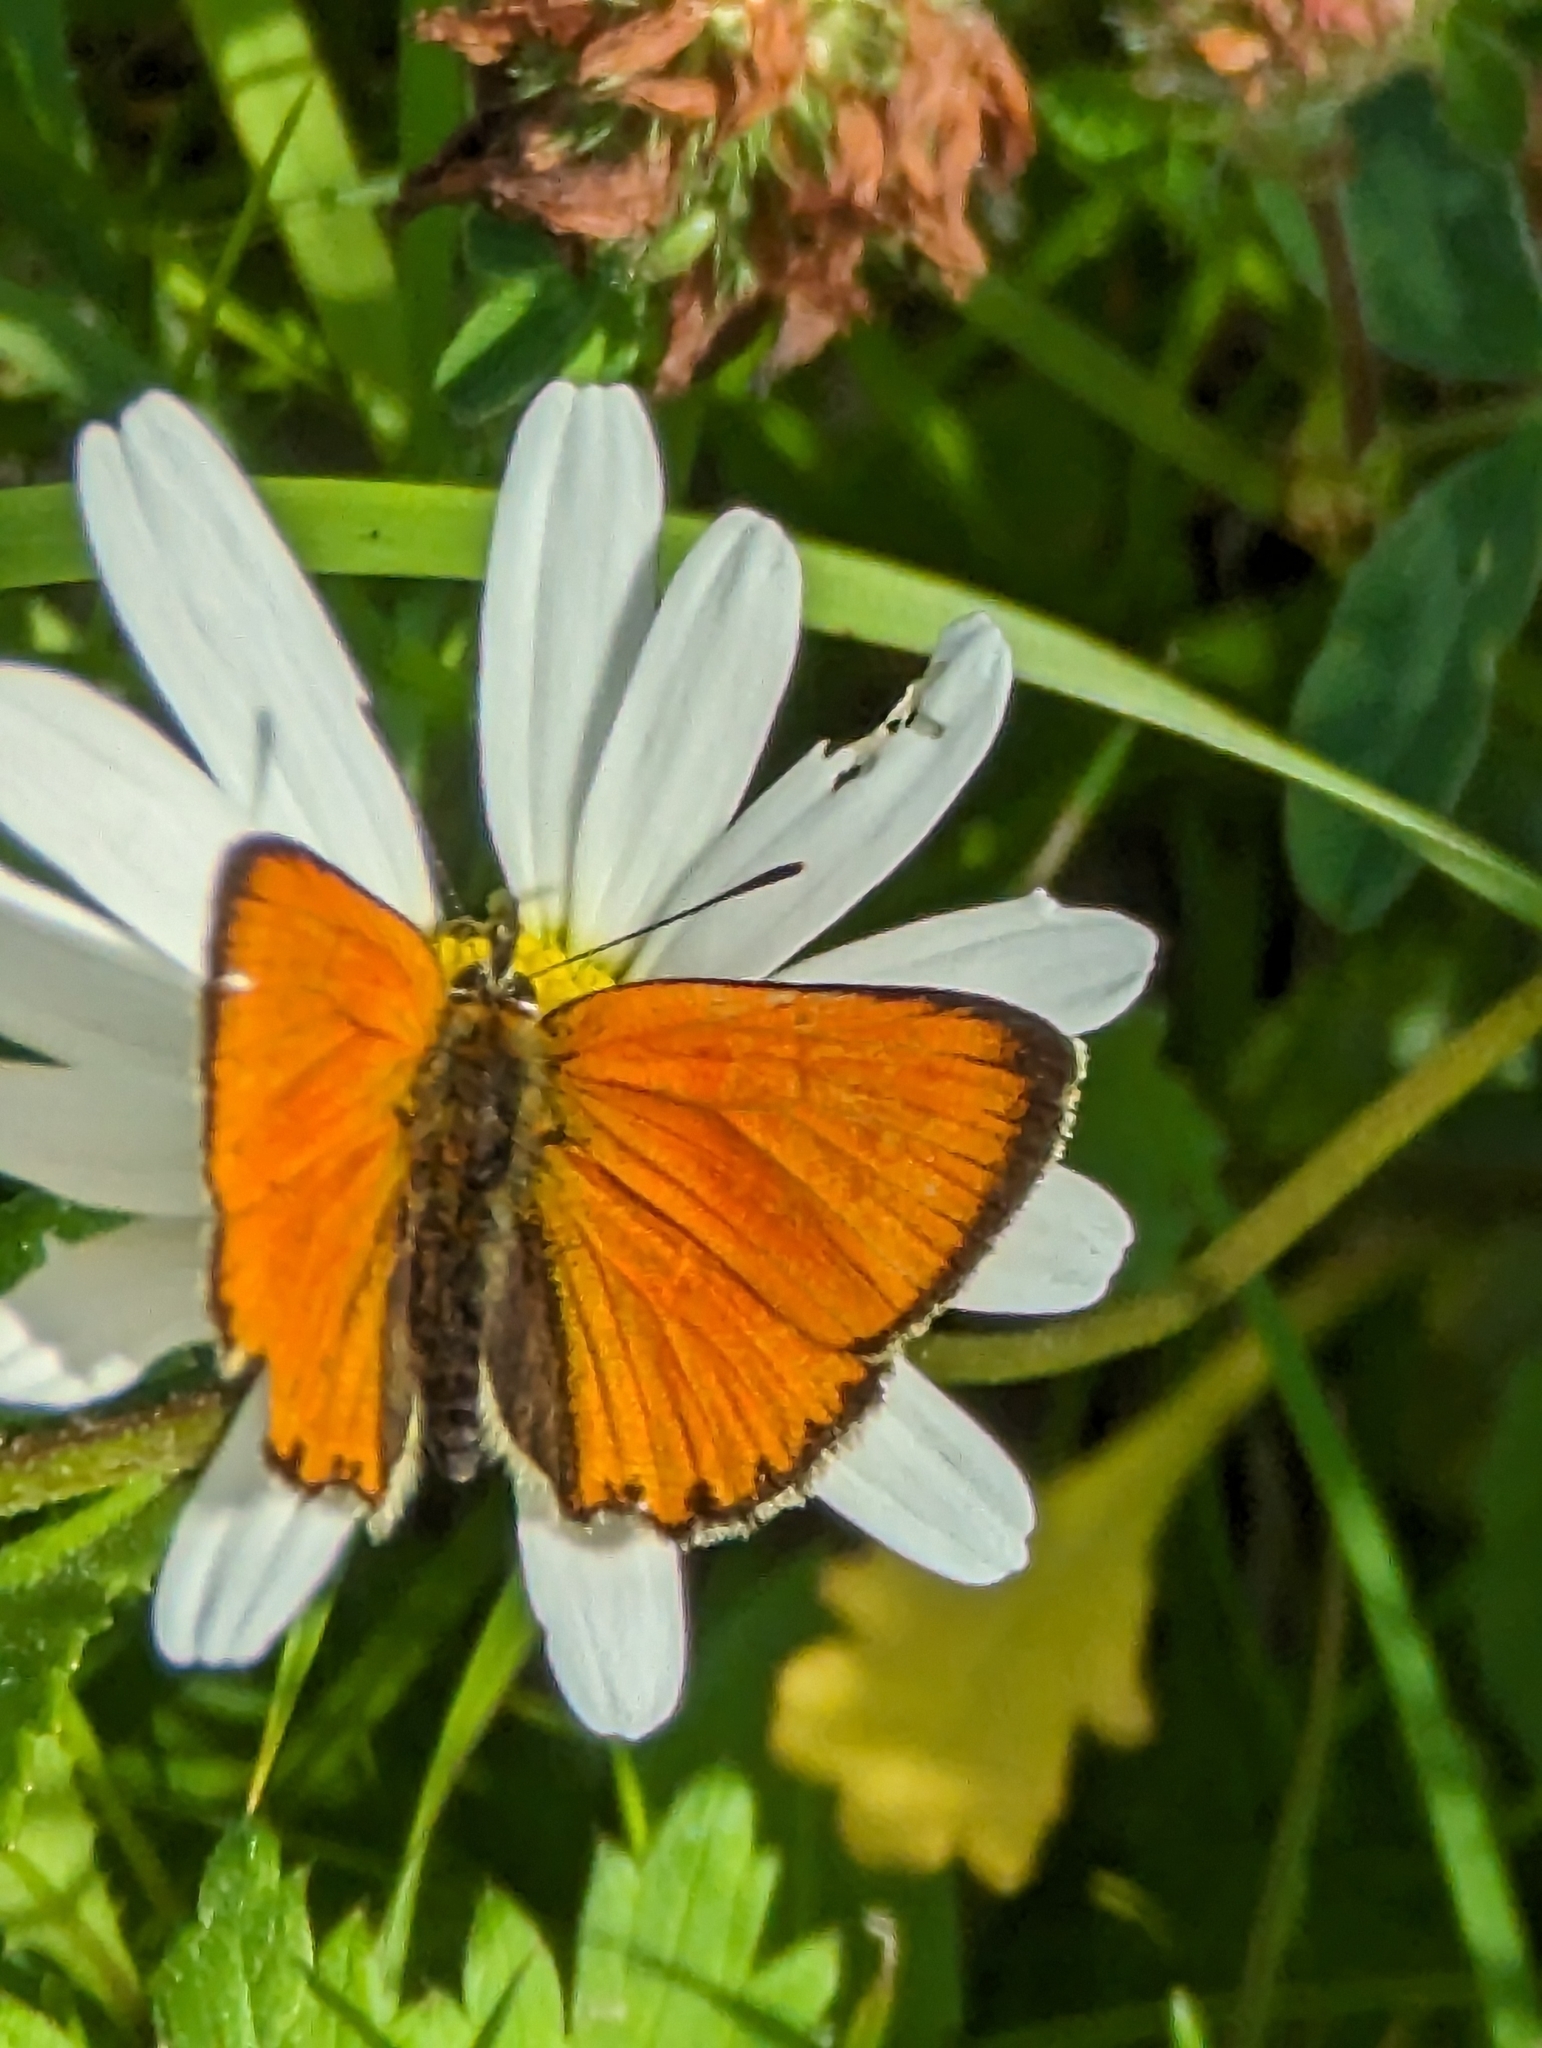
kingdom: Animalia
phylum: Arthropoda
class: Insecta
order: Lepidoptera
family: Lycaenidae
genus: Lycaena
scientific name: Lycaena virgaureae
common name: Scarce copper
